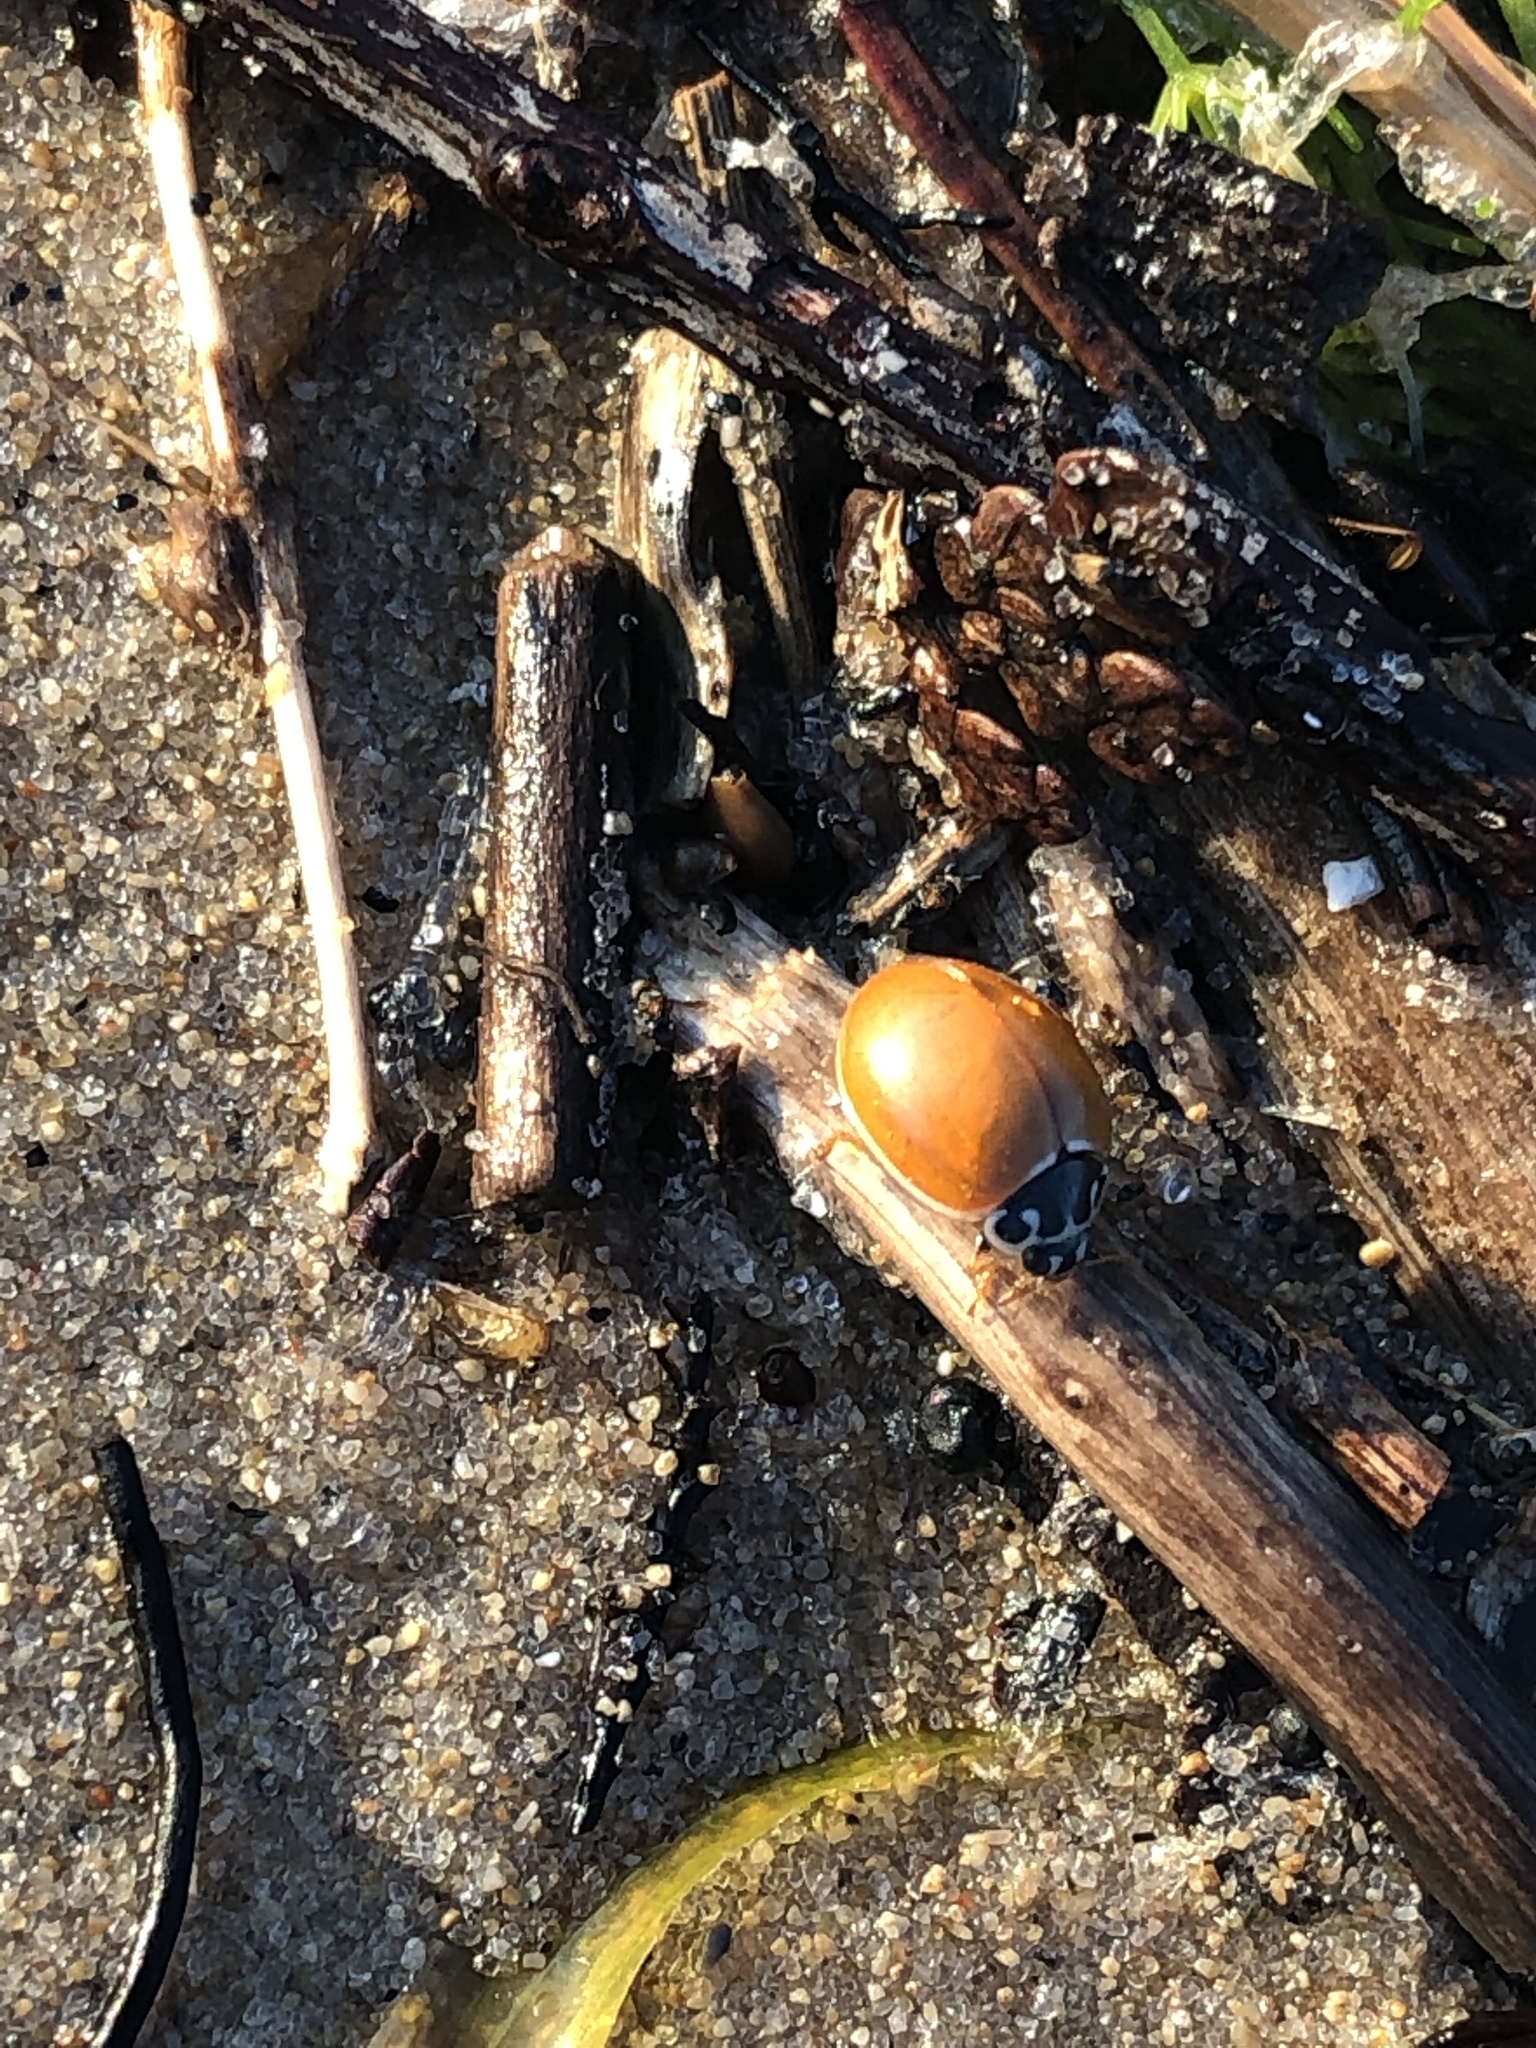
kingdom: Animalia
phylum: Arthropoda
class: Insecta
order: Coleoptera
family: Coccinellidae
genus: Cycloneda
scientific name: Cycloneda munda
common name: Polished lady beetle
